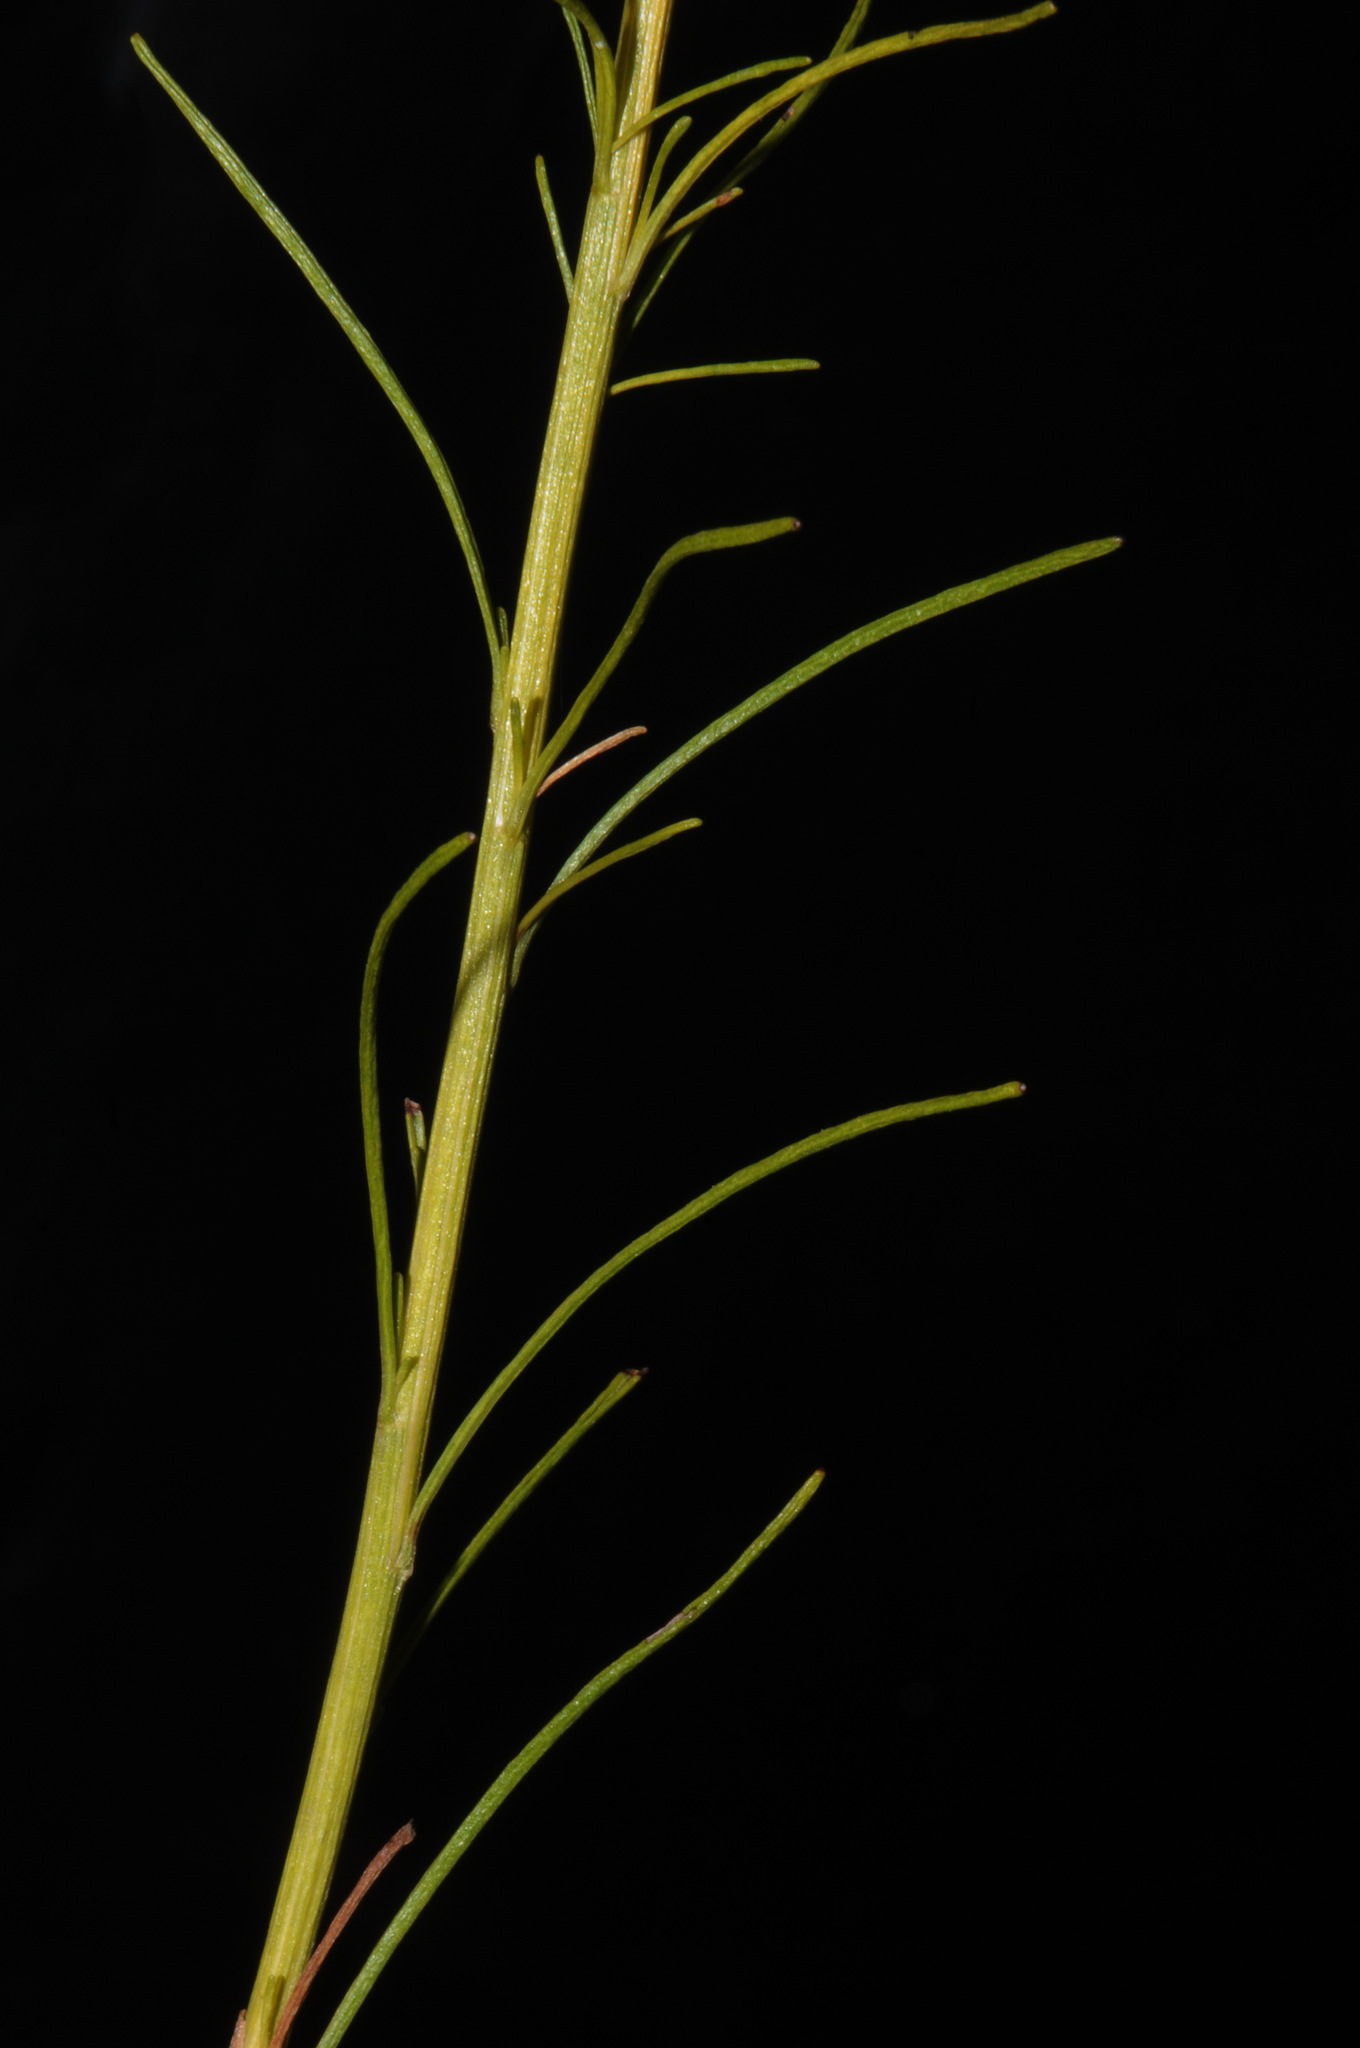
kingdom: Plantae
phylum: Tracheophyta
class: Magnoliopsida
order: Asterales
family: Asteraceae
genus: Bigelowia
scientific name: Bigelowia nuttallii
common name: Nuttall's rayless-goldenrod
